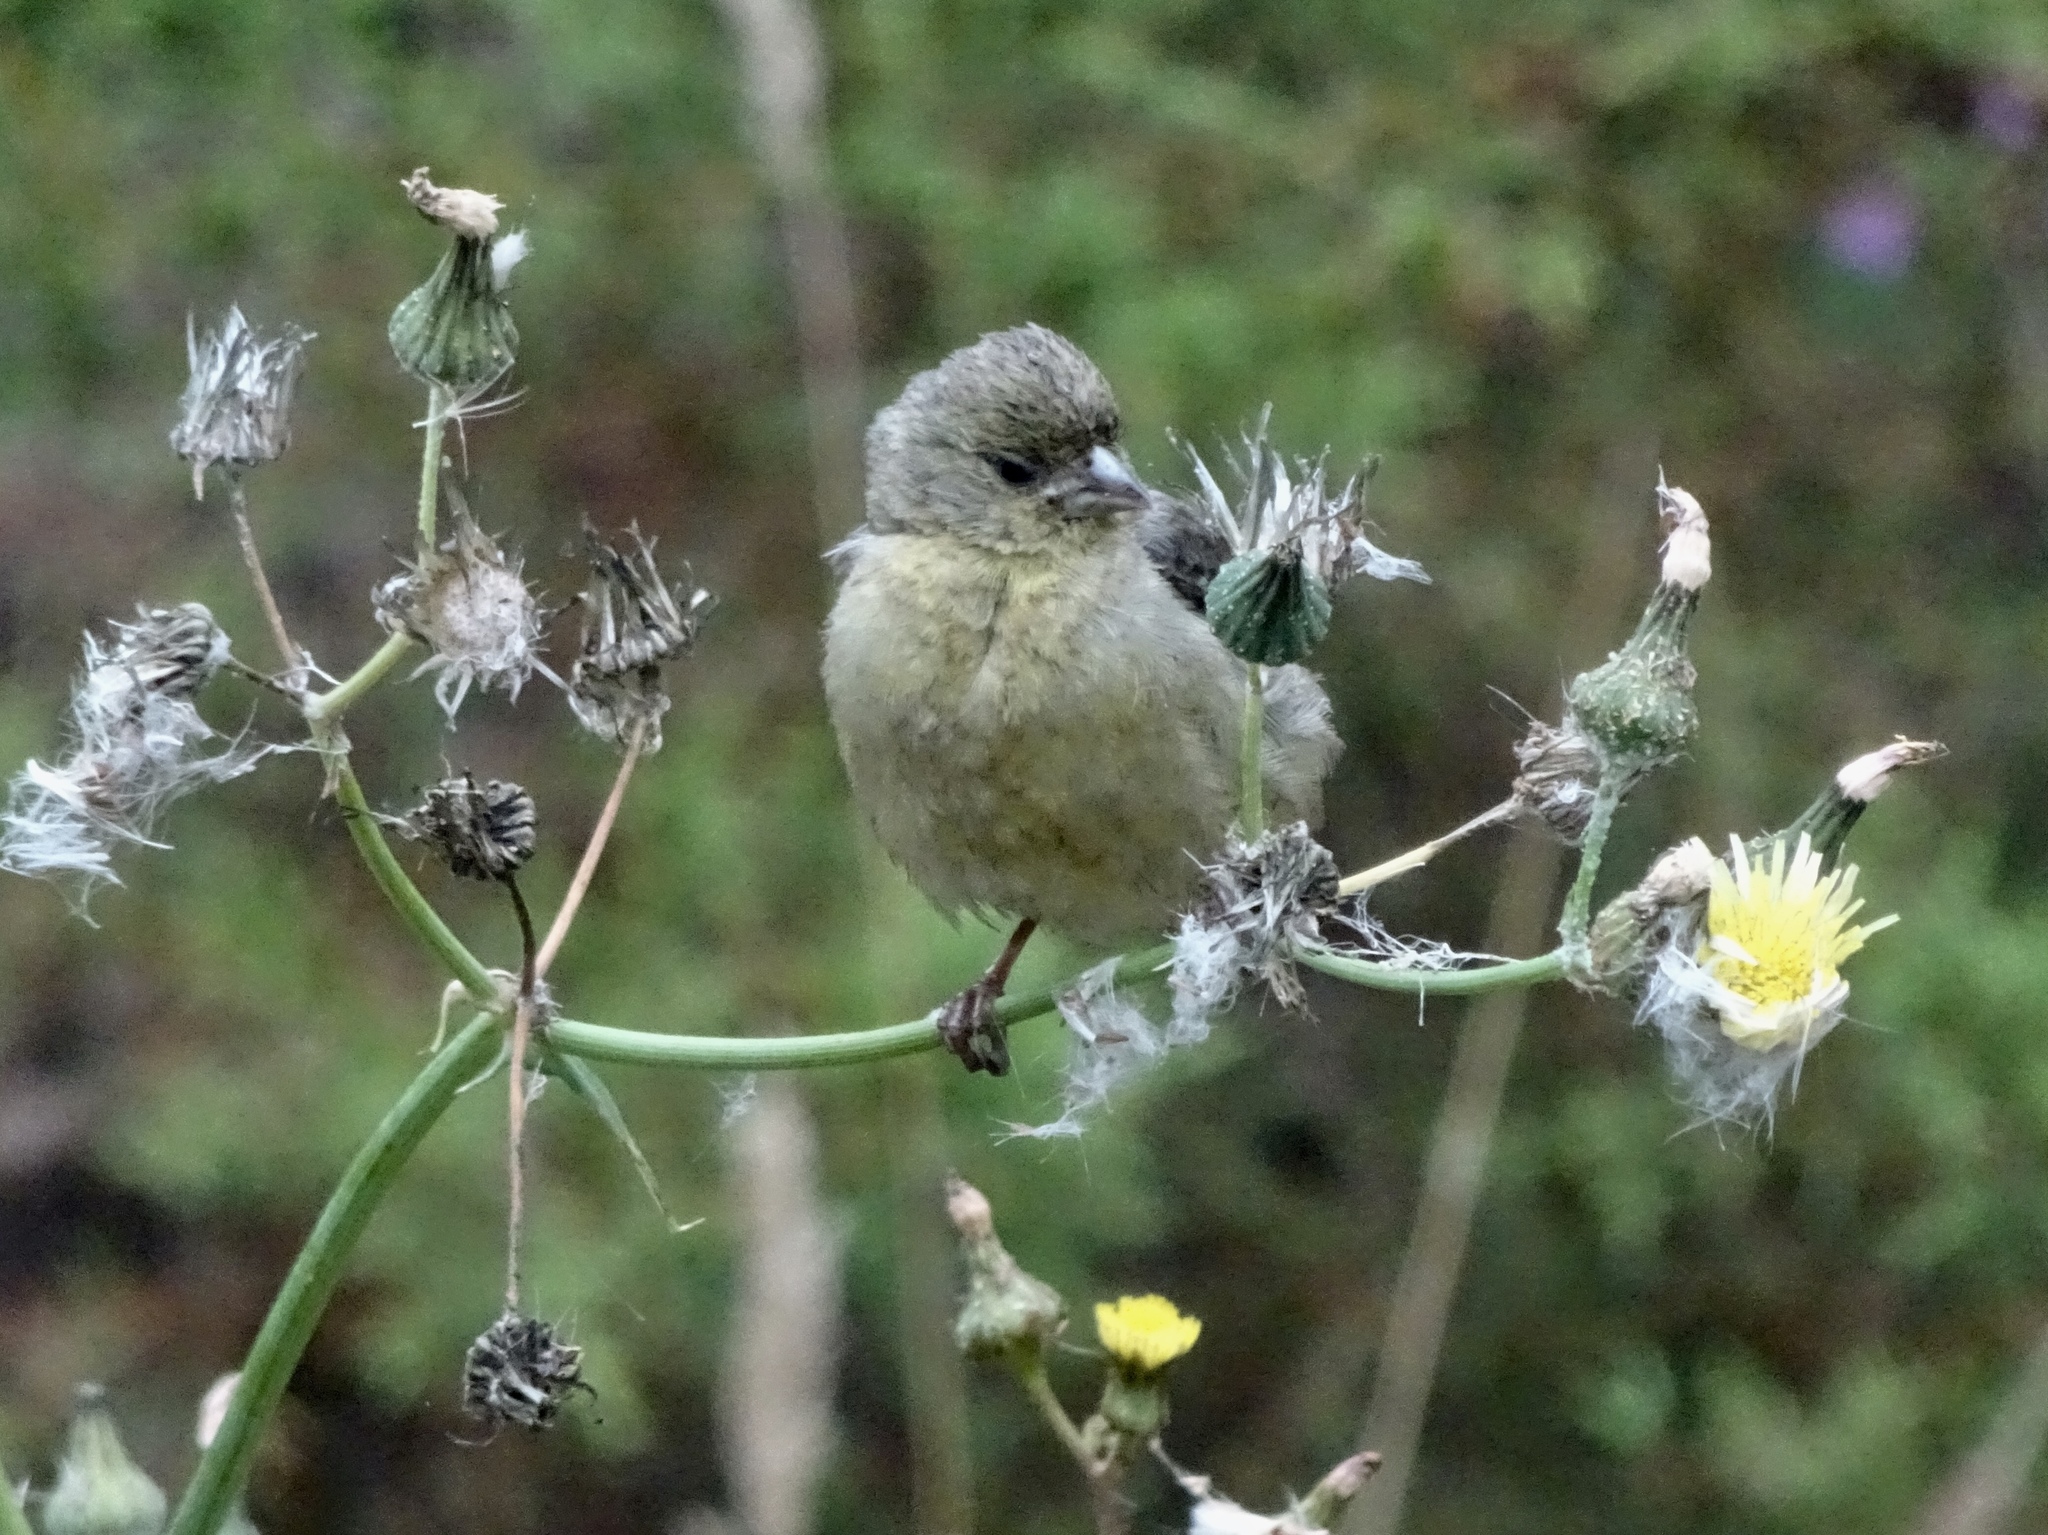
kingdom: Animalia
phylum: Chordata
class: Aves
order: Passeriformes
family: Fringillidae
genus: Spinus
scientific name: Spinus psaltria
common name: Lesser goldfinch
